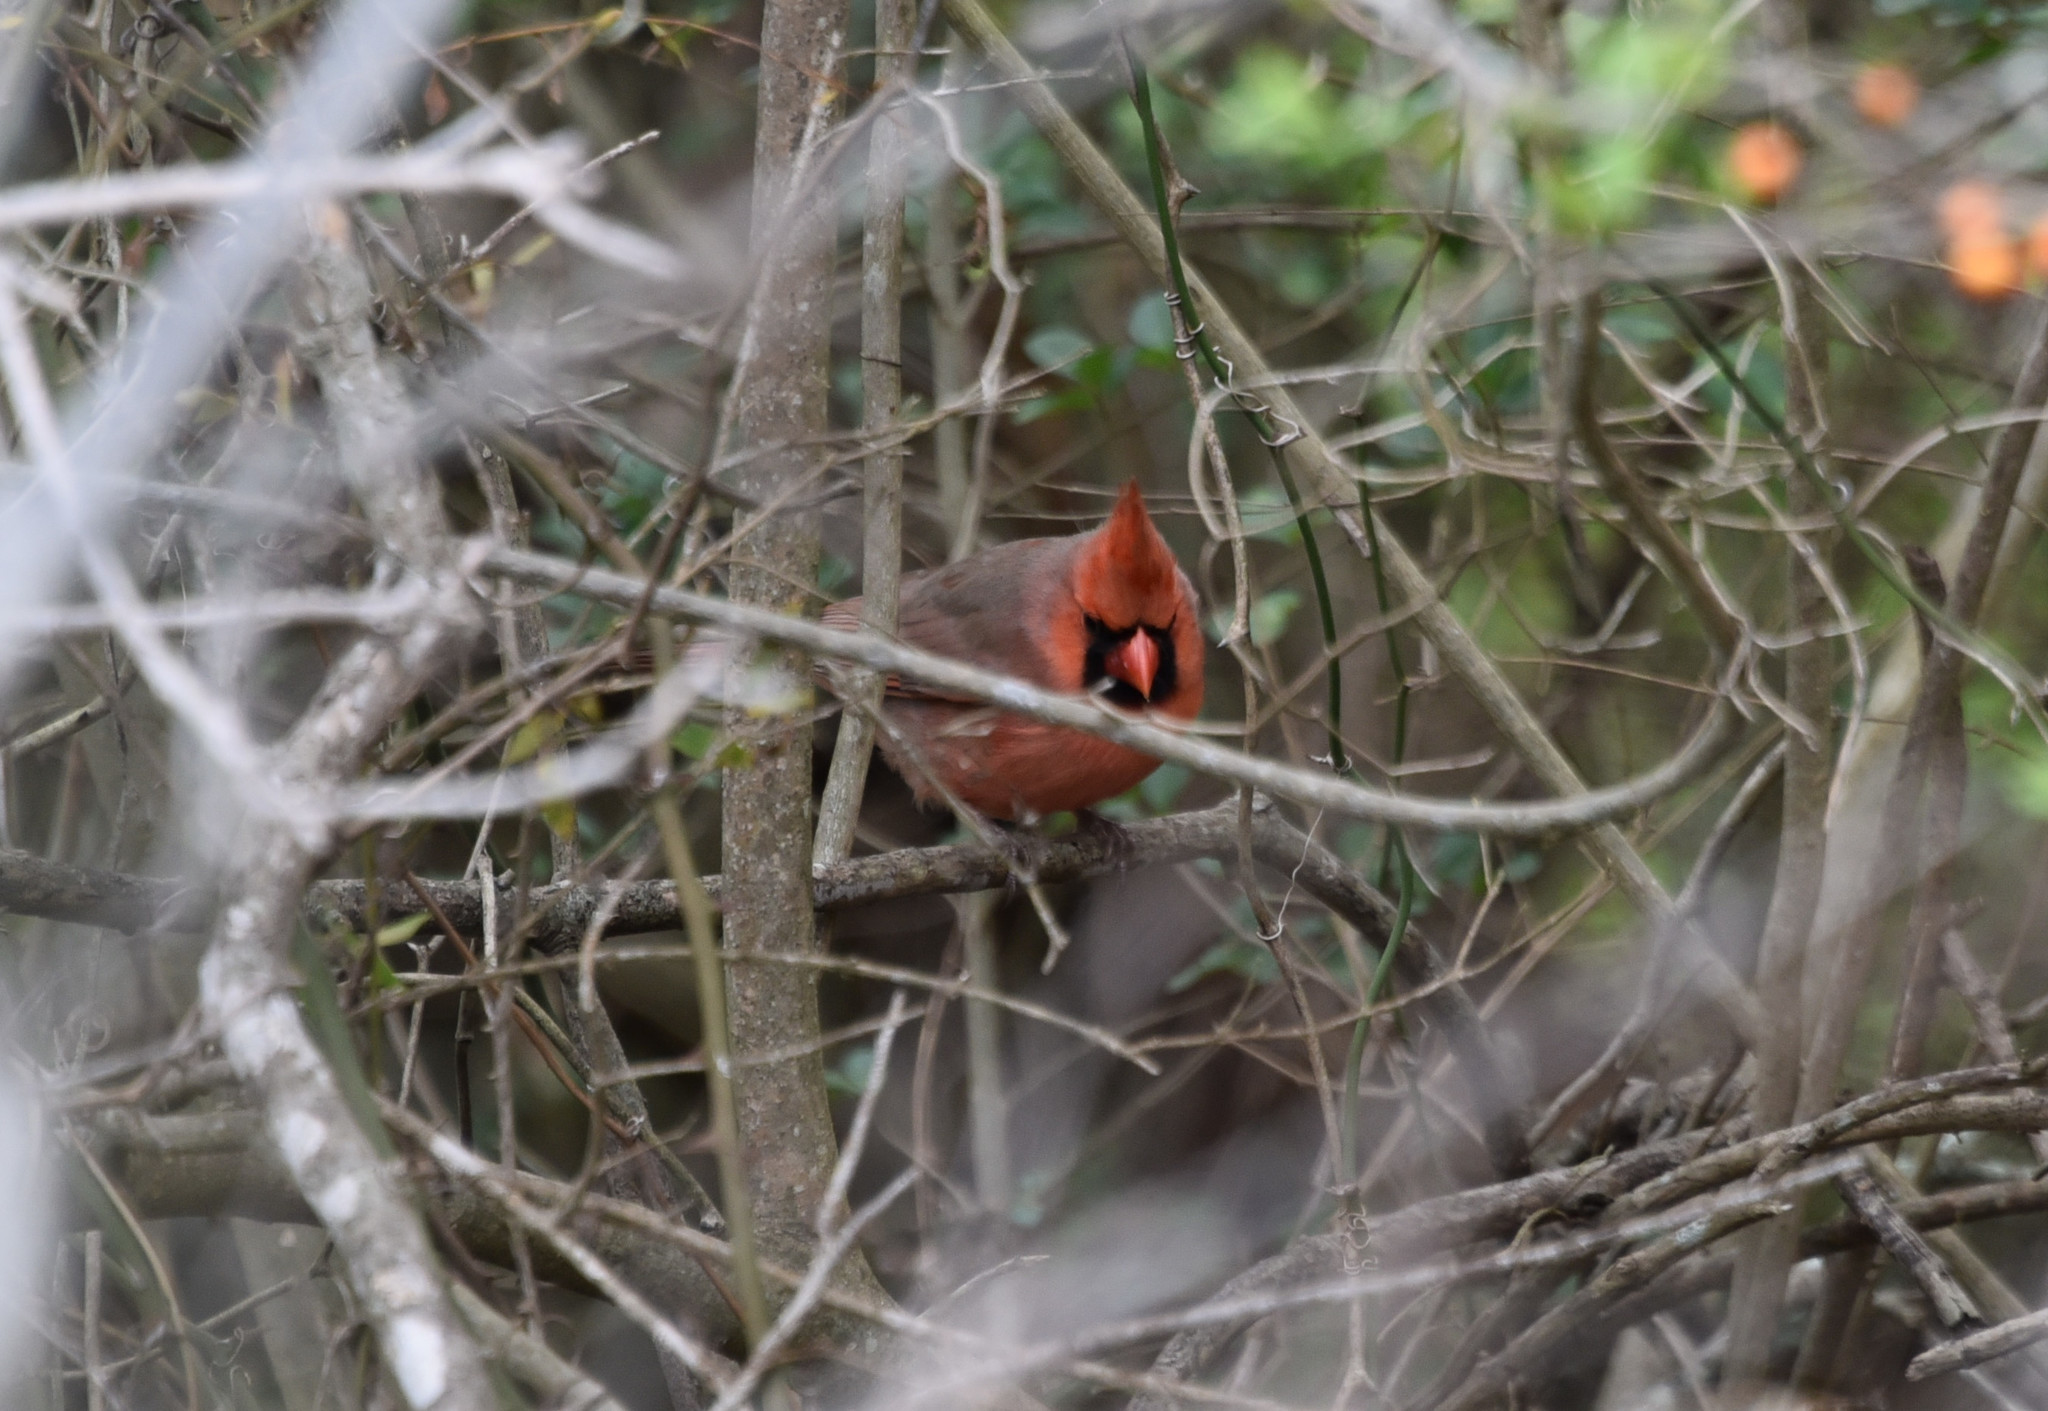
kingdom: Animalia
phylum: Chordata
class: Aves
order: Passeriformes
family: Cardinalidae
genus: Cardinalis
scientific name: Cardinalis cardinalis
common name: Northern cardinal
